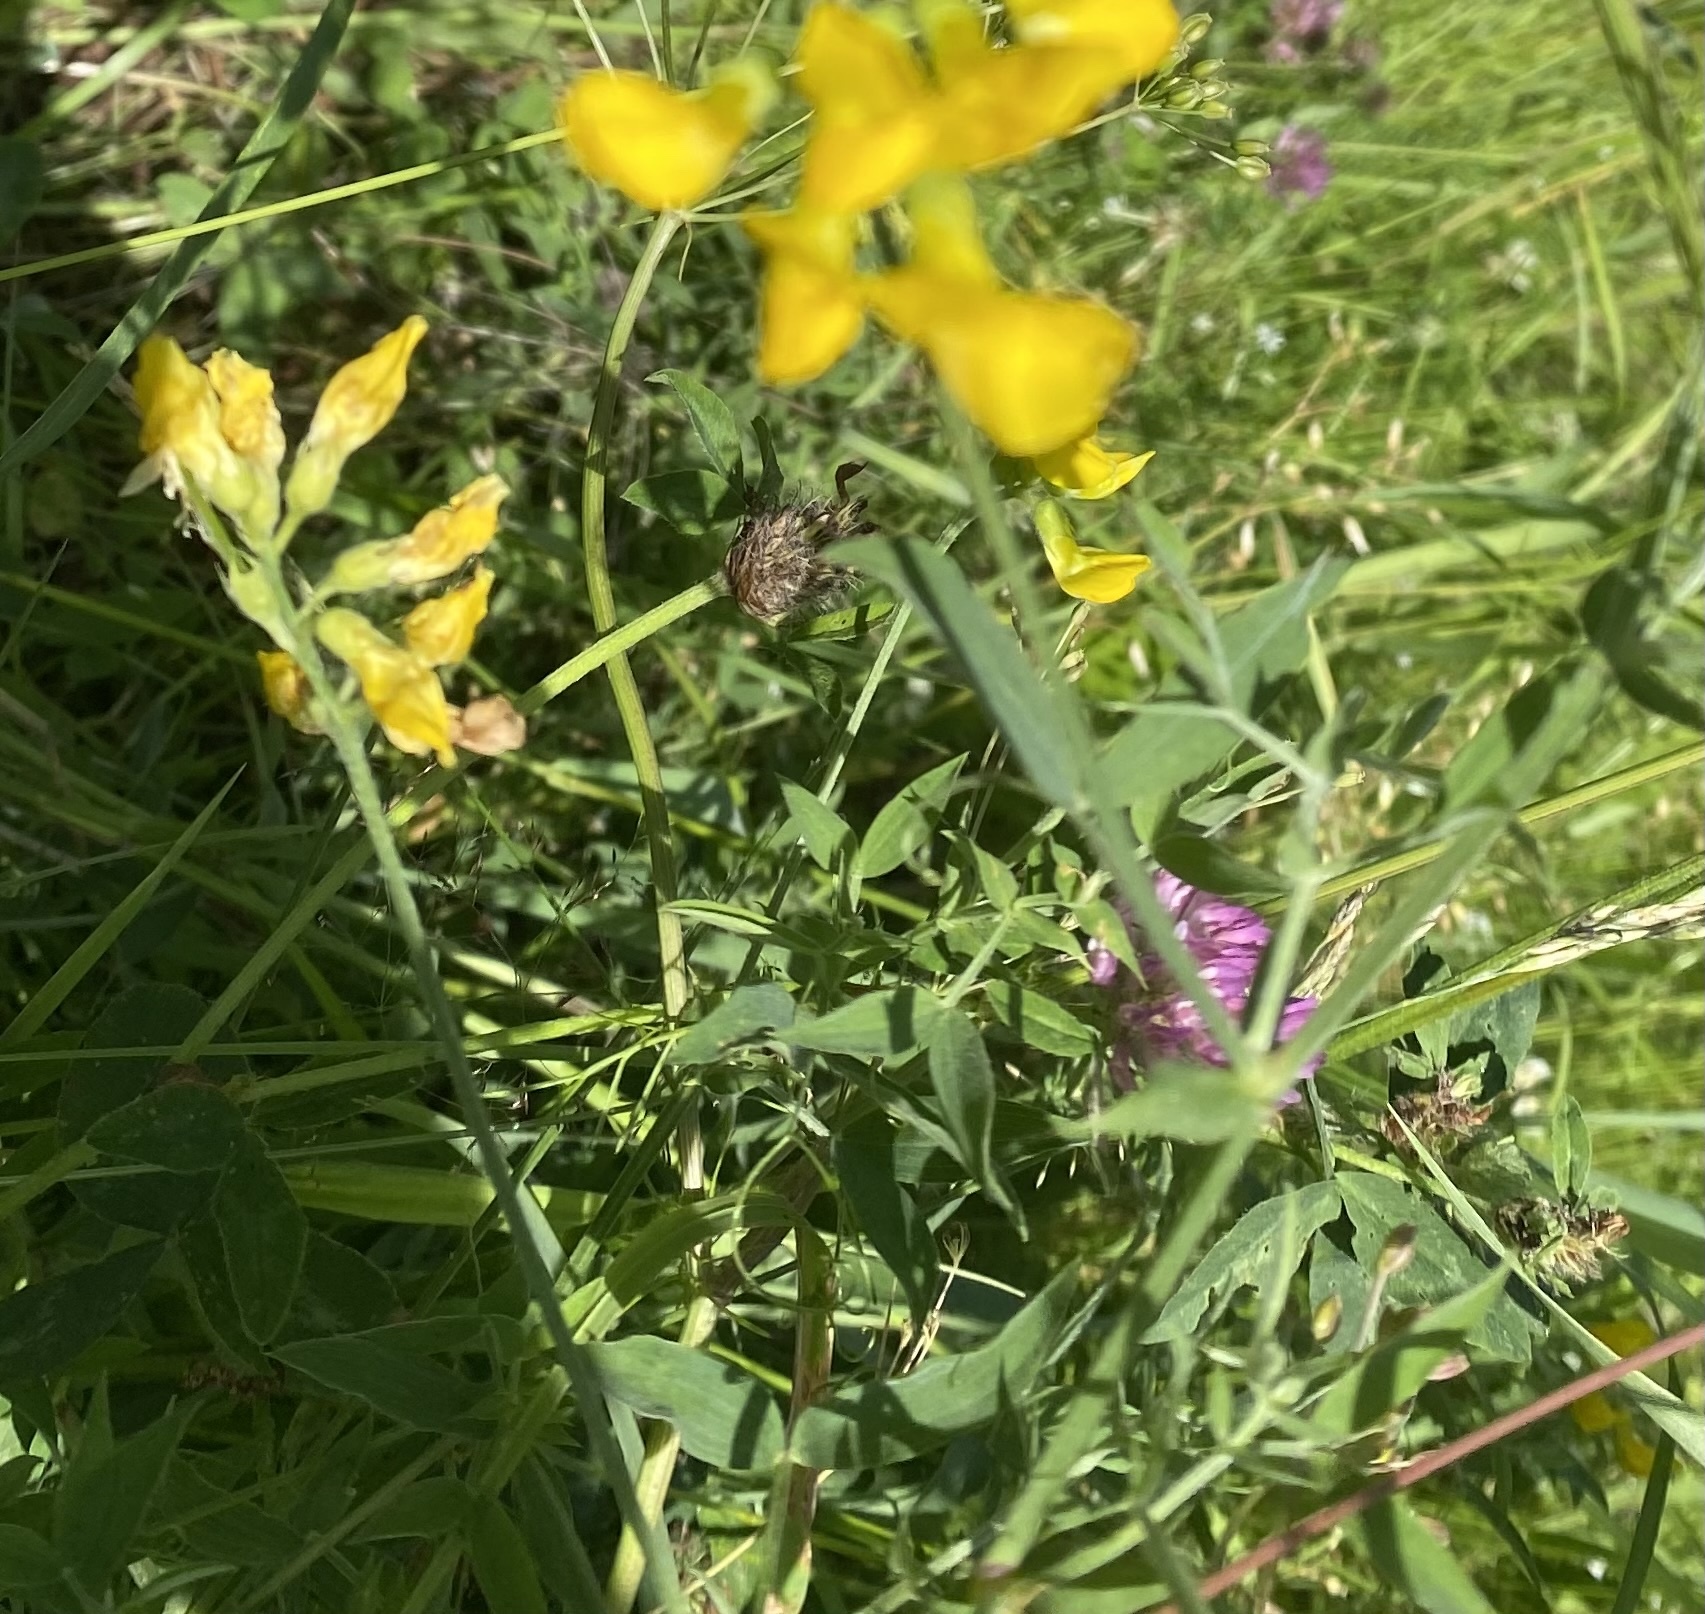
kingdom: Plantae
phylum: Tracheophyta
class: Magnoliopsida
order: Fabales
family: Fabaceae
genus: Lathyrus
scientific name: Lathyrus pratensis
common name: Meadow vetchling
